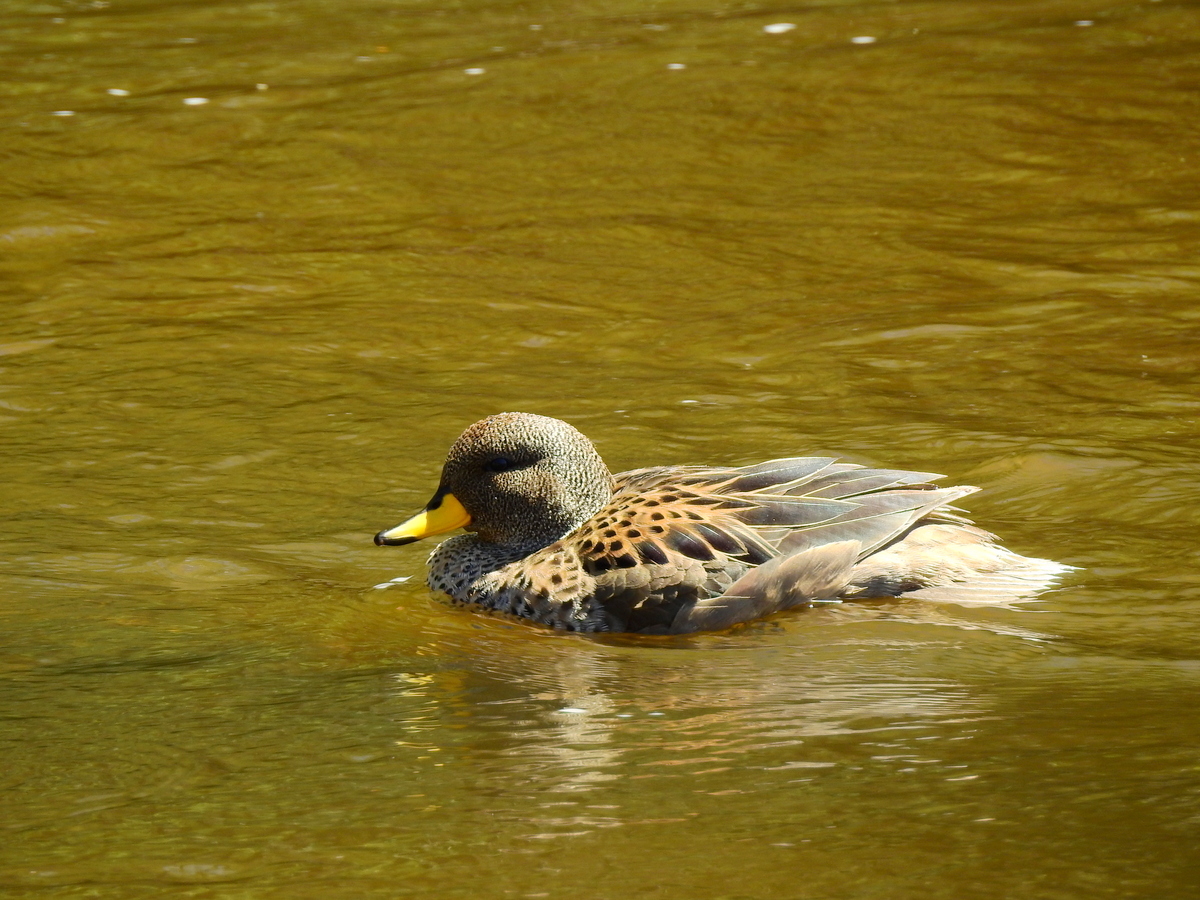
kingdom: Animalia
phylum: Chordata
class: Aves
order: Anseriformes
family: Anatidae
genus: Anas
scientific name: Anas flavirostris
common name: Yellow-billed teal
